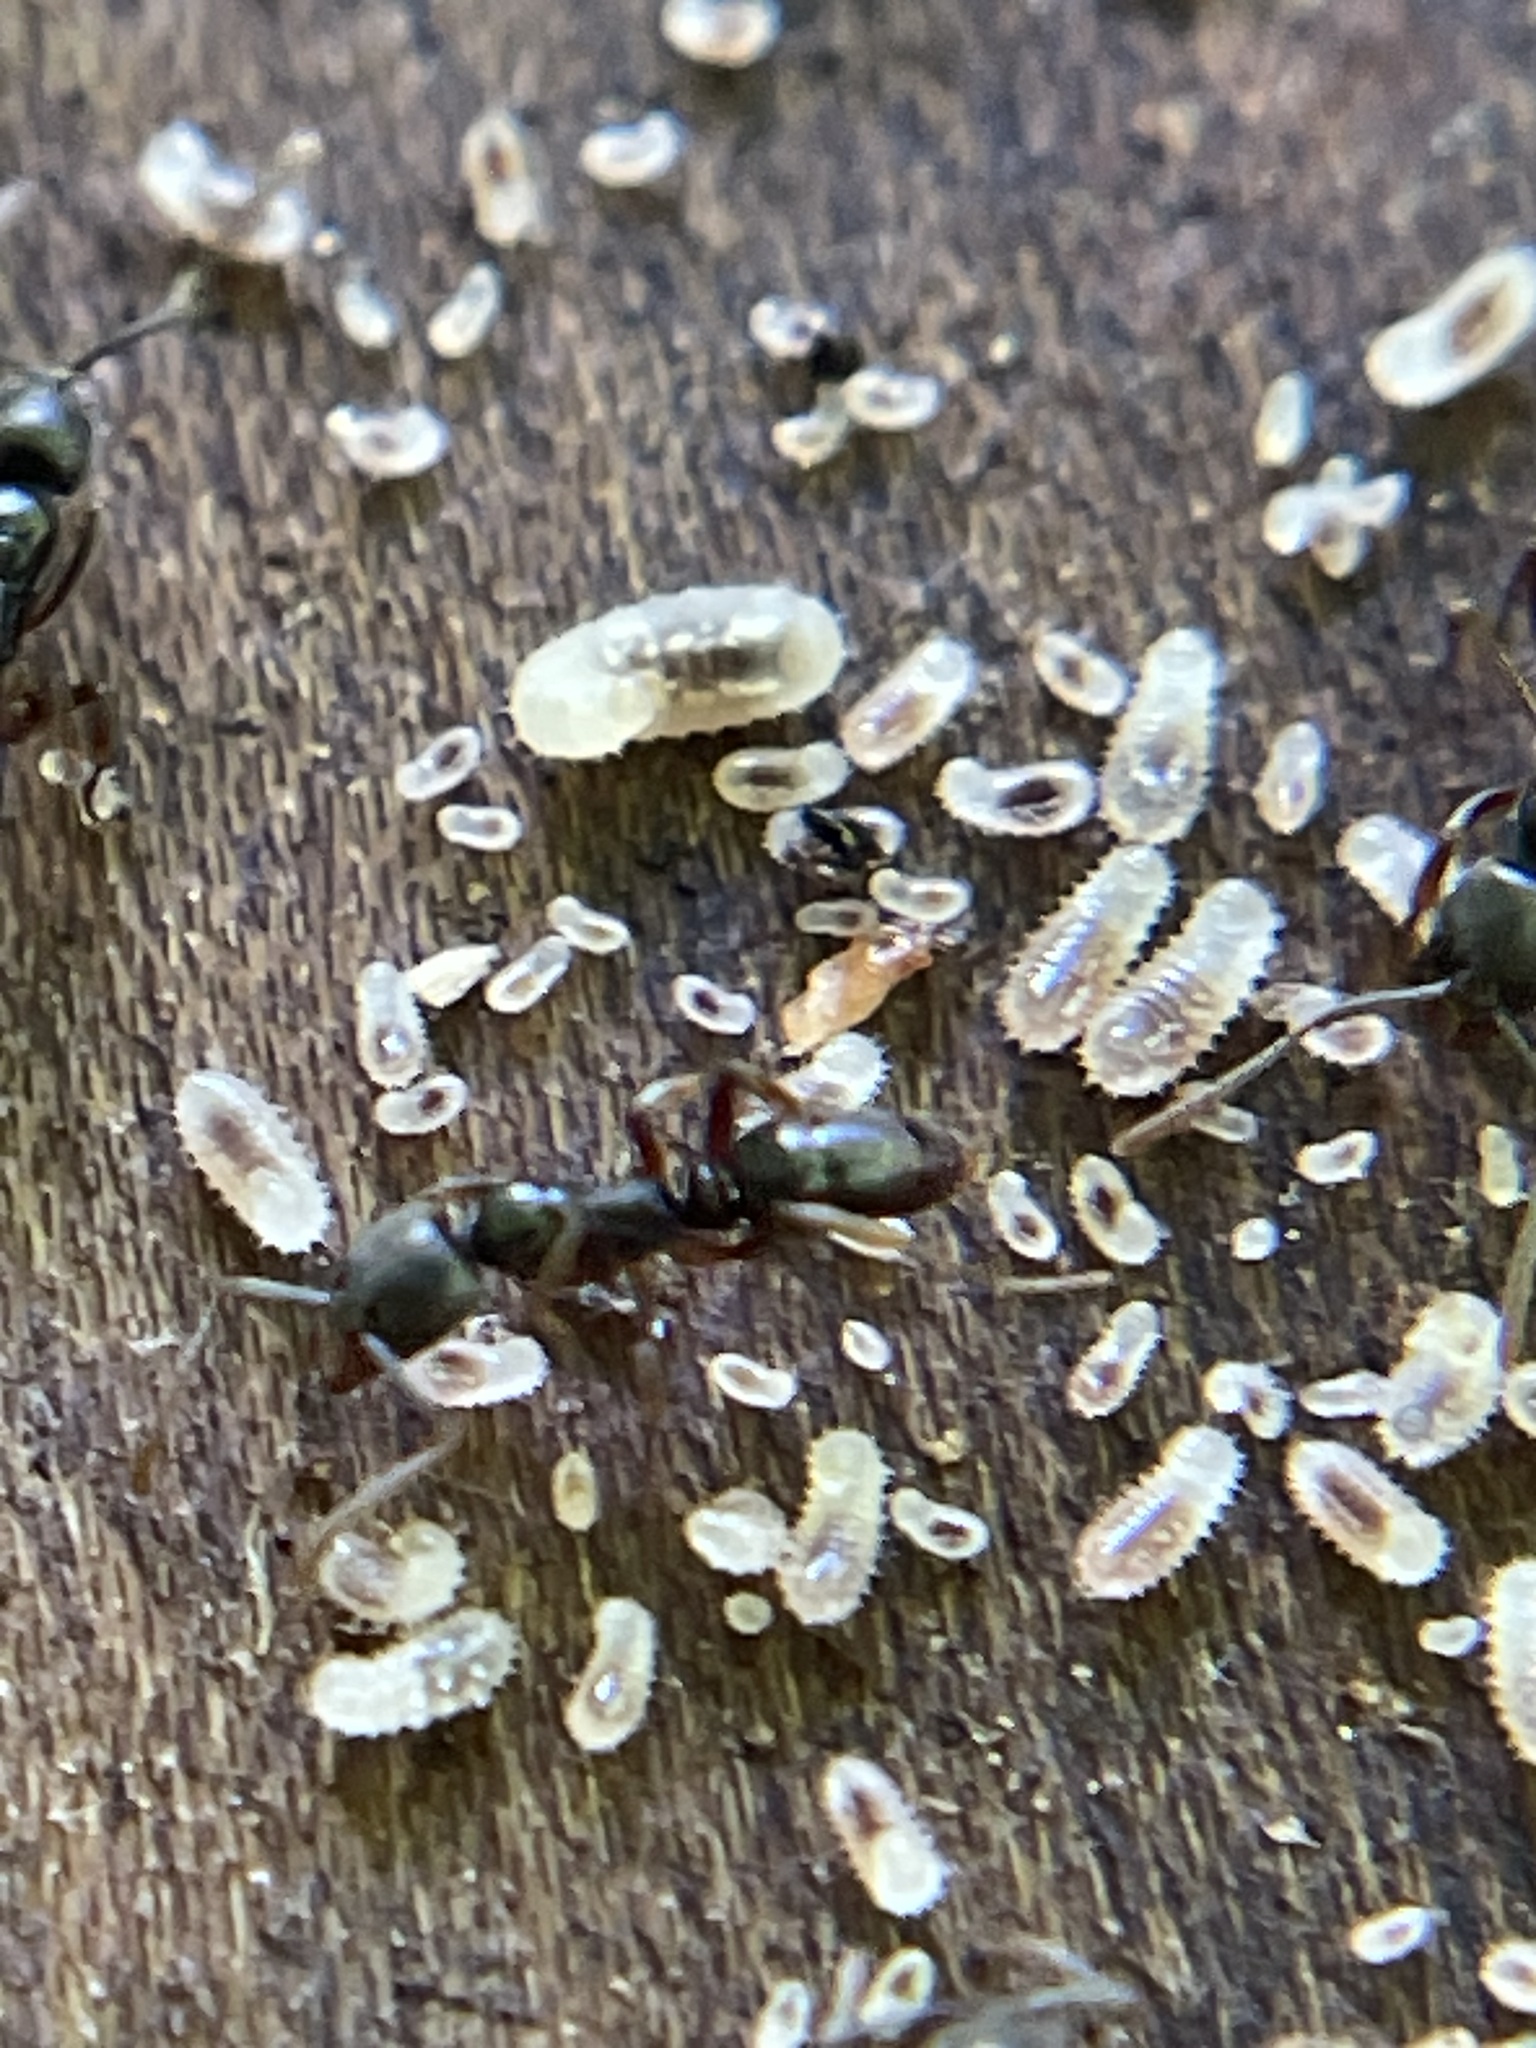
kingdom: Animalia
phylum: Arthropoda
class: Insecta
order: Hymenoptera
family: Formicidae
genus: Pachycondyla
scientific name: Pachycondyla chinensis
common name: Asian needle ant
